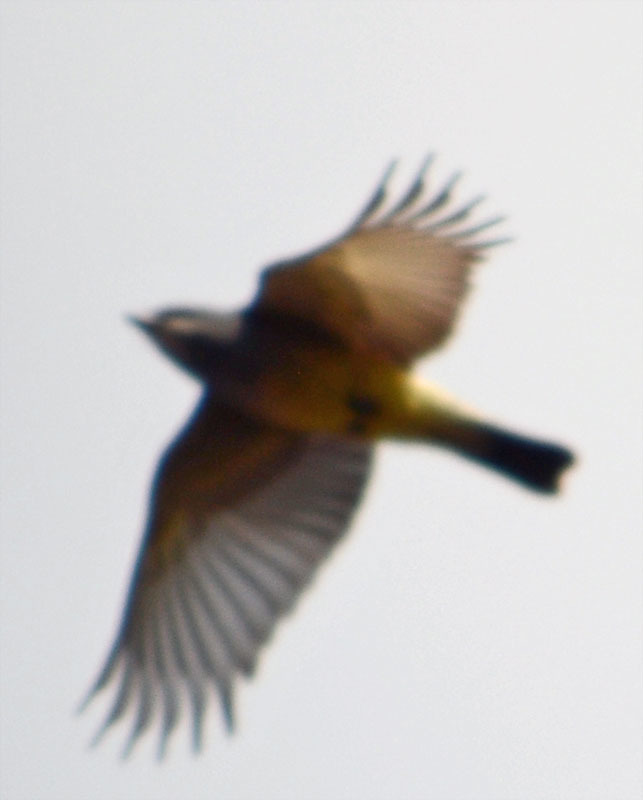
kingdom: Animalia
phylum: Chordata
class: Aves
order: Passeriformes
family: Tyrannidae
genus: Tyrannus
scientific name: Tyrannus vociferans
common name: Cassin's kingbird
